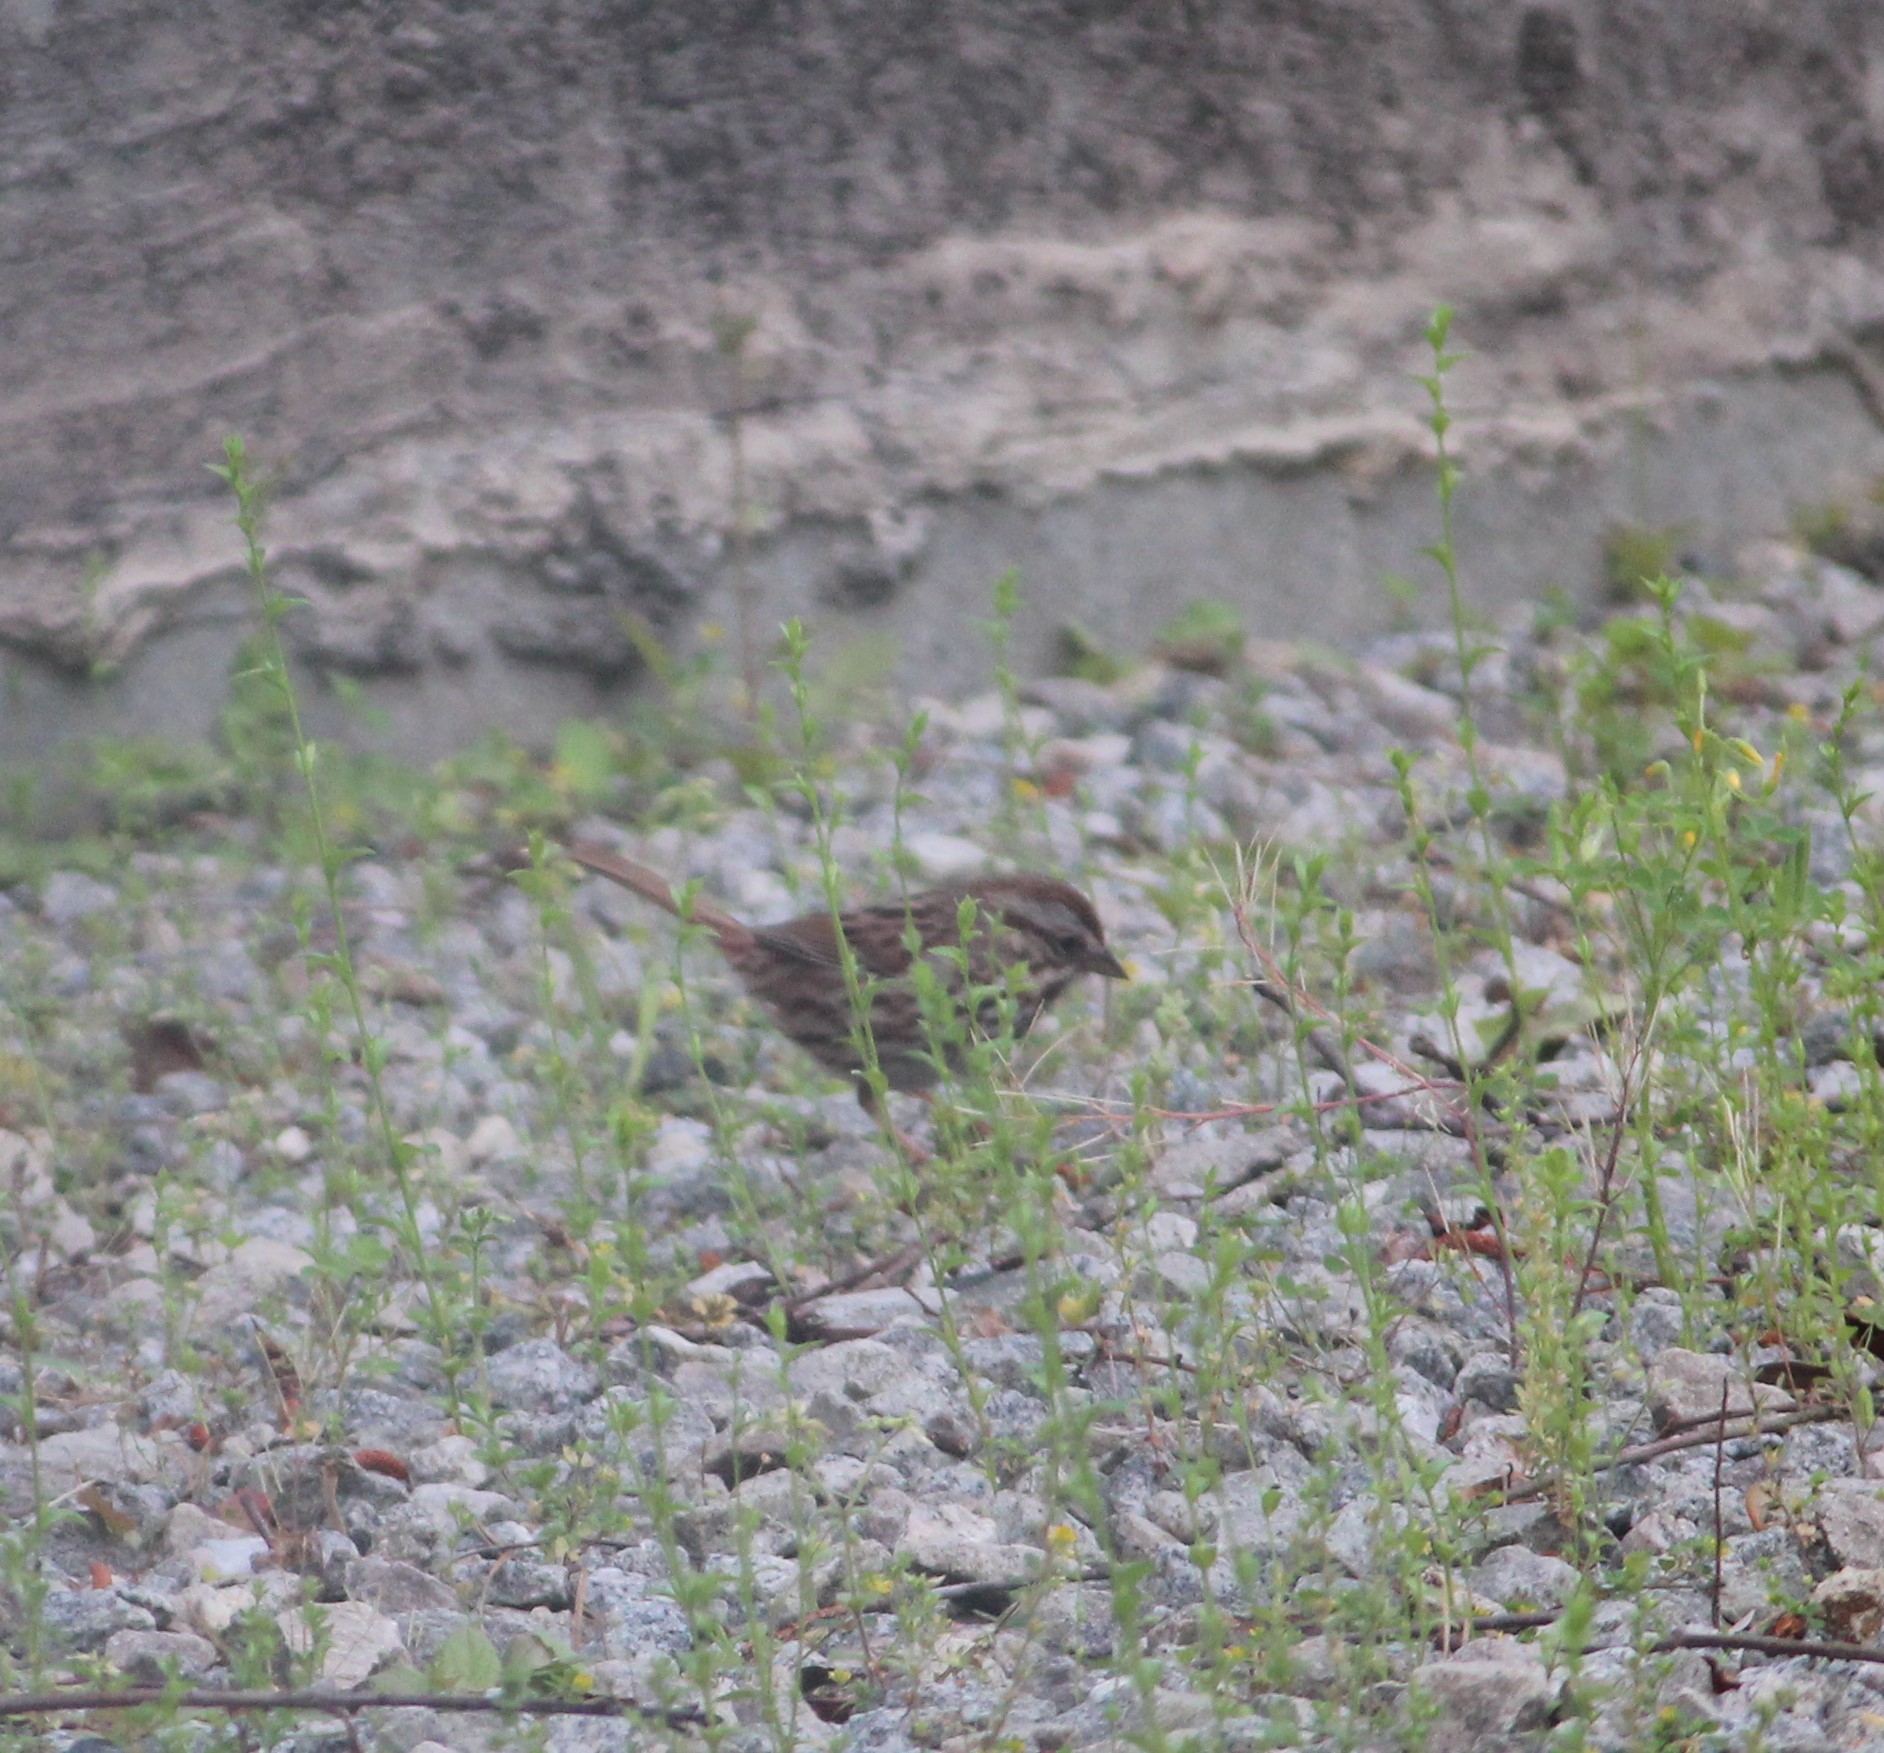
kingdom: Animalia
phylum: Chordata
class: Aves
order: Passeriformes
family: Passerellidae
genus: Melospiza
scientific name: Melospiza melodia
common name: Song sparrow
